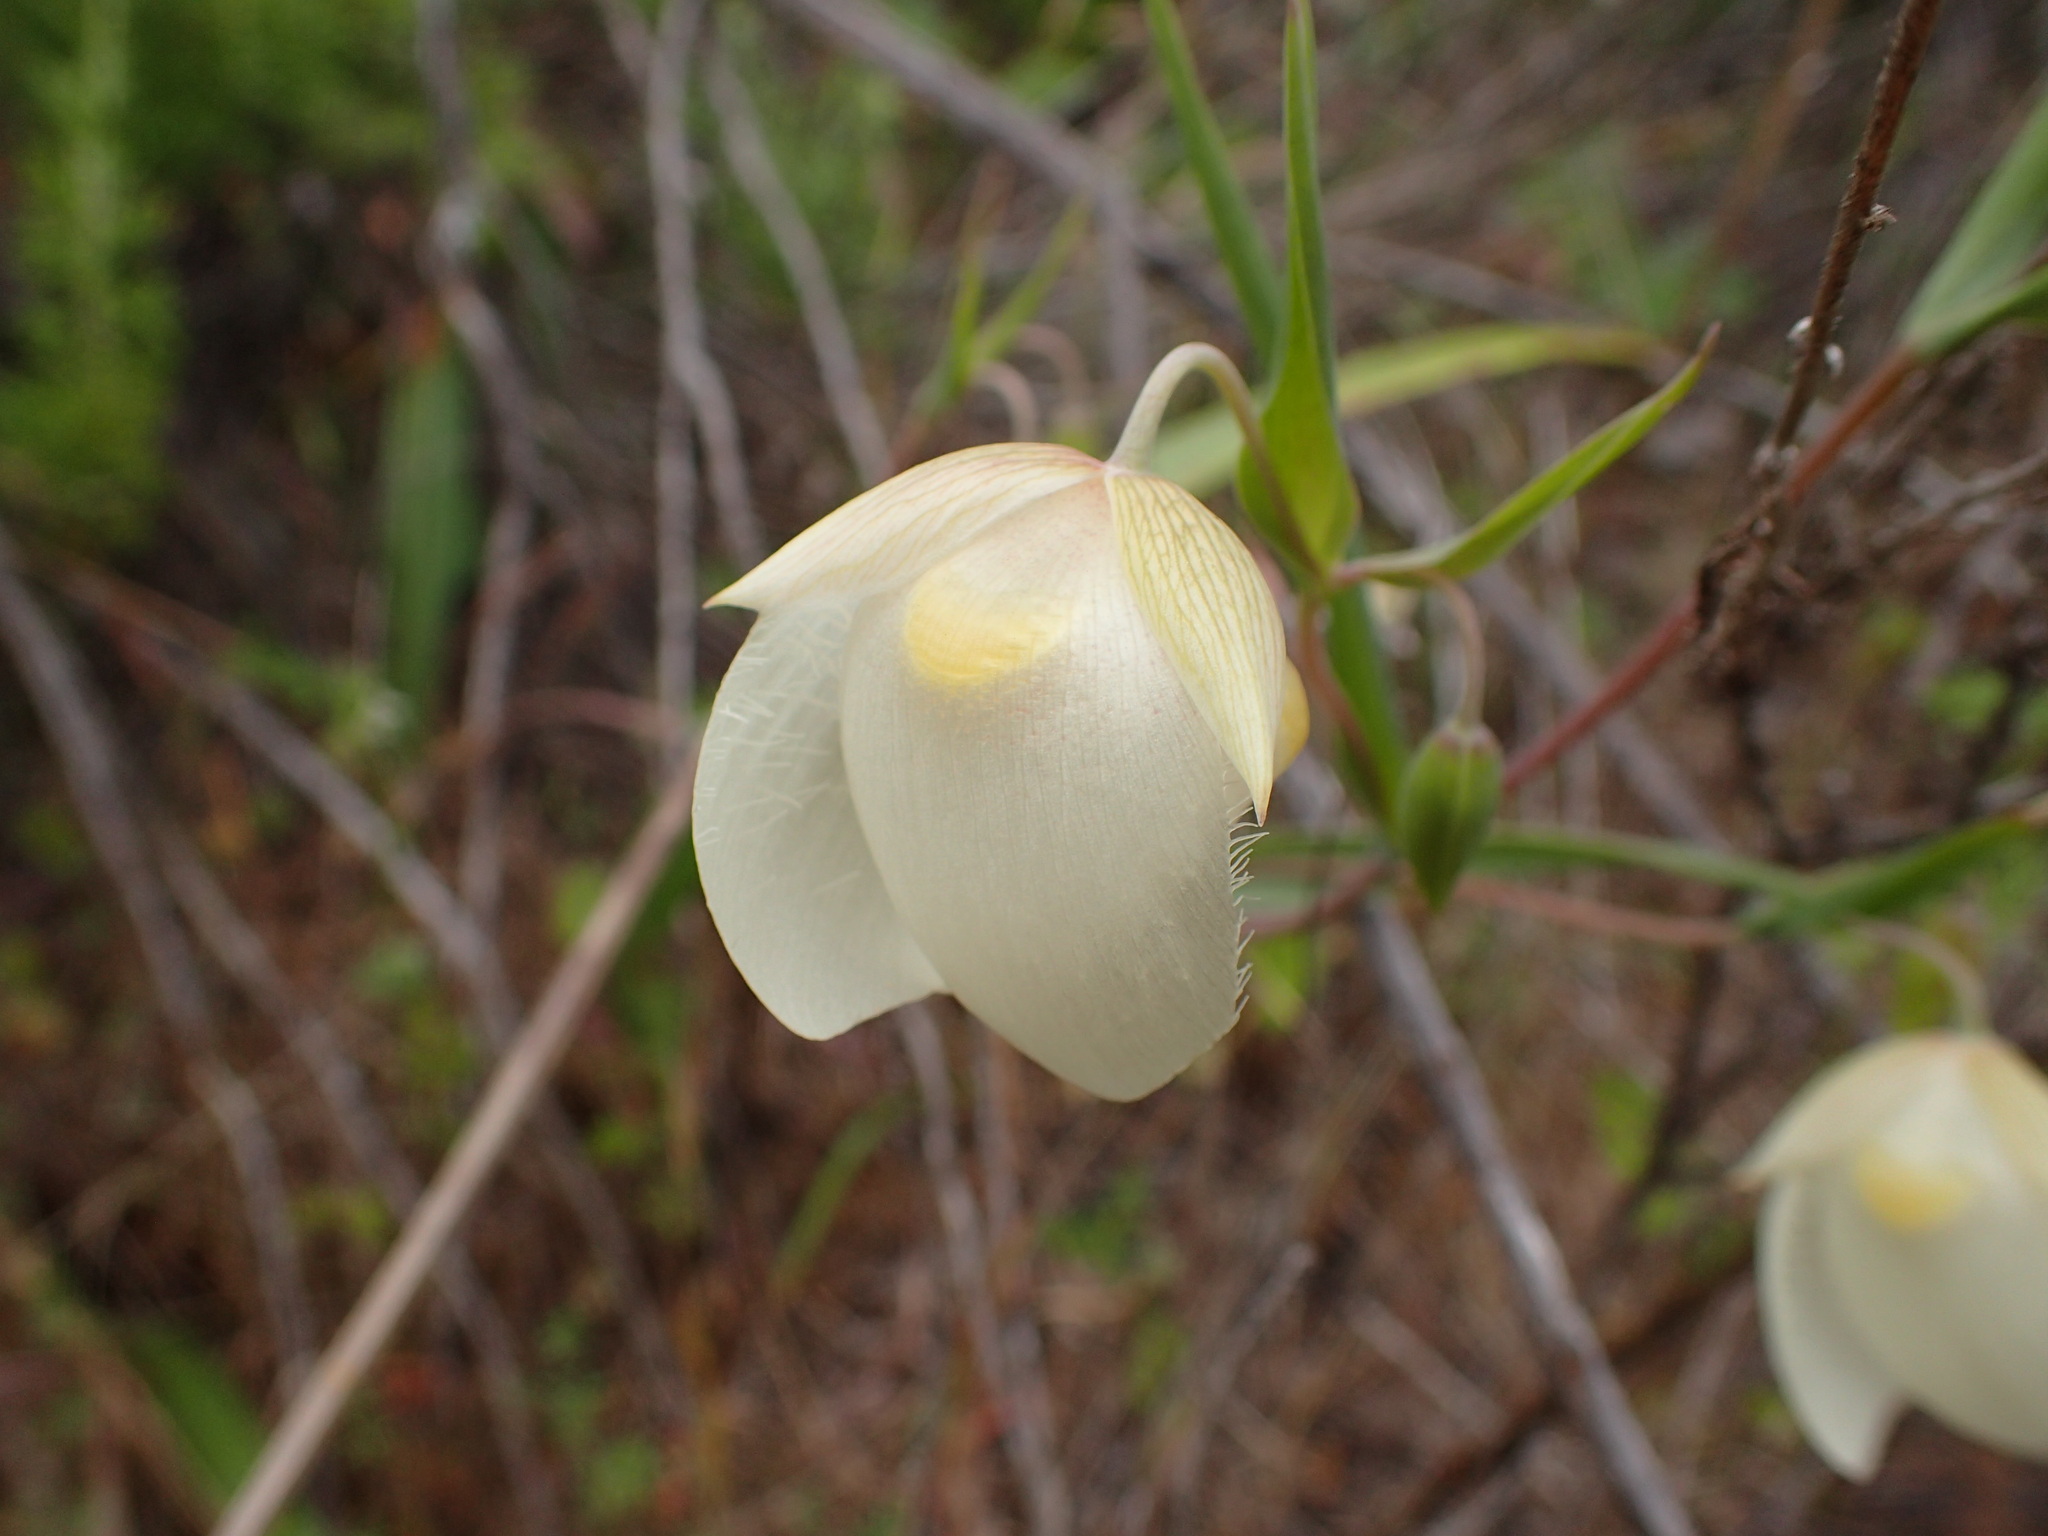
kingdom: Plantae
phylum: Tracheophyta
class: Liliopsida
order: Liliales
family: Liliaceae
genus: Calochortus
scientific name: Calochortus albus
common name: Fairy-lantern
